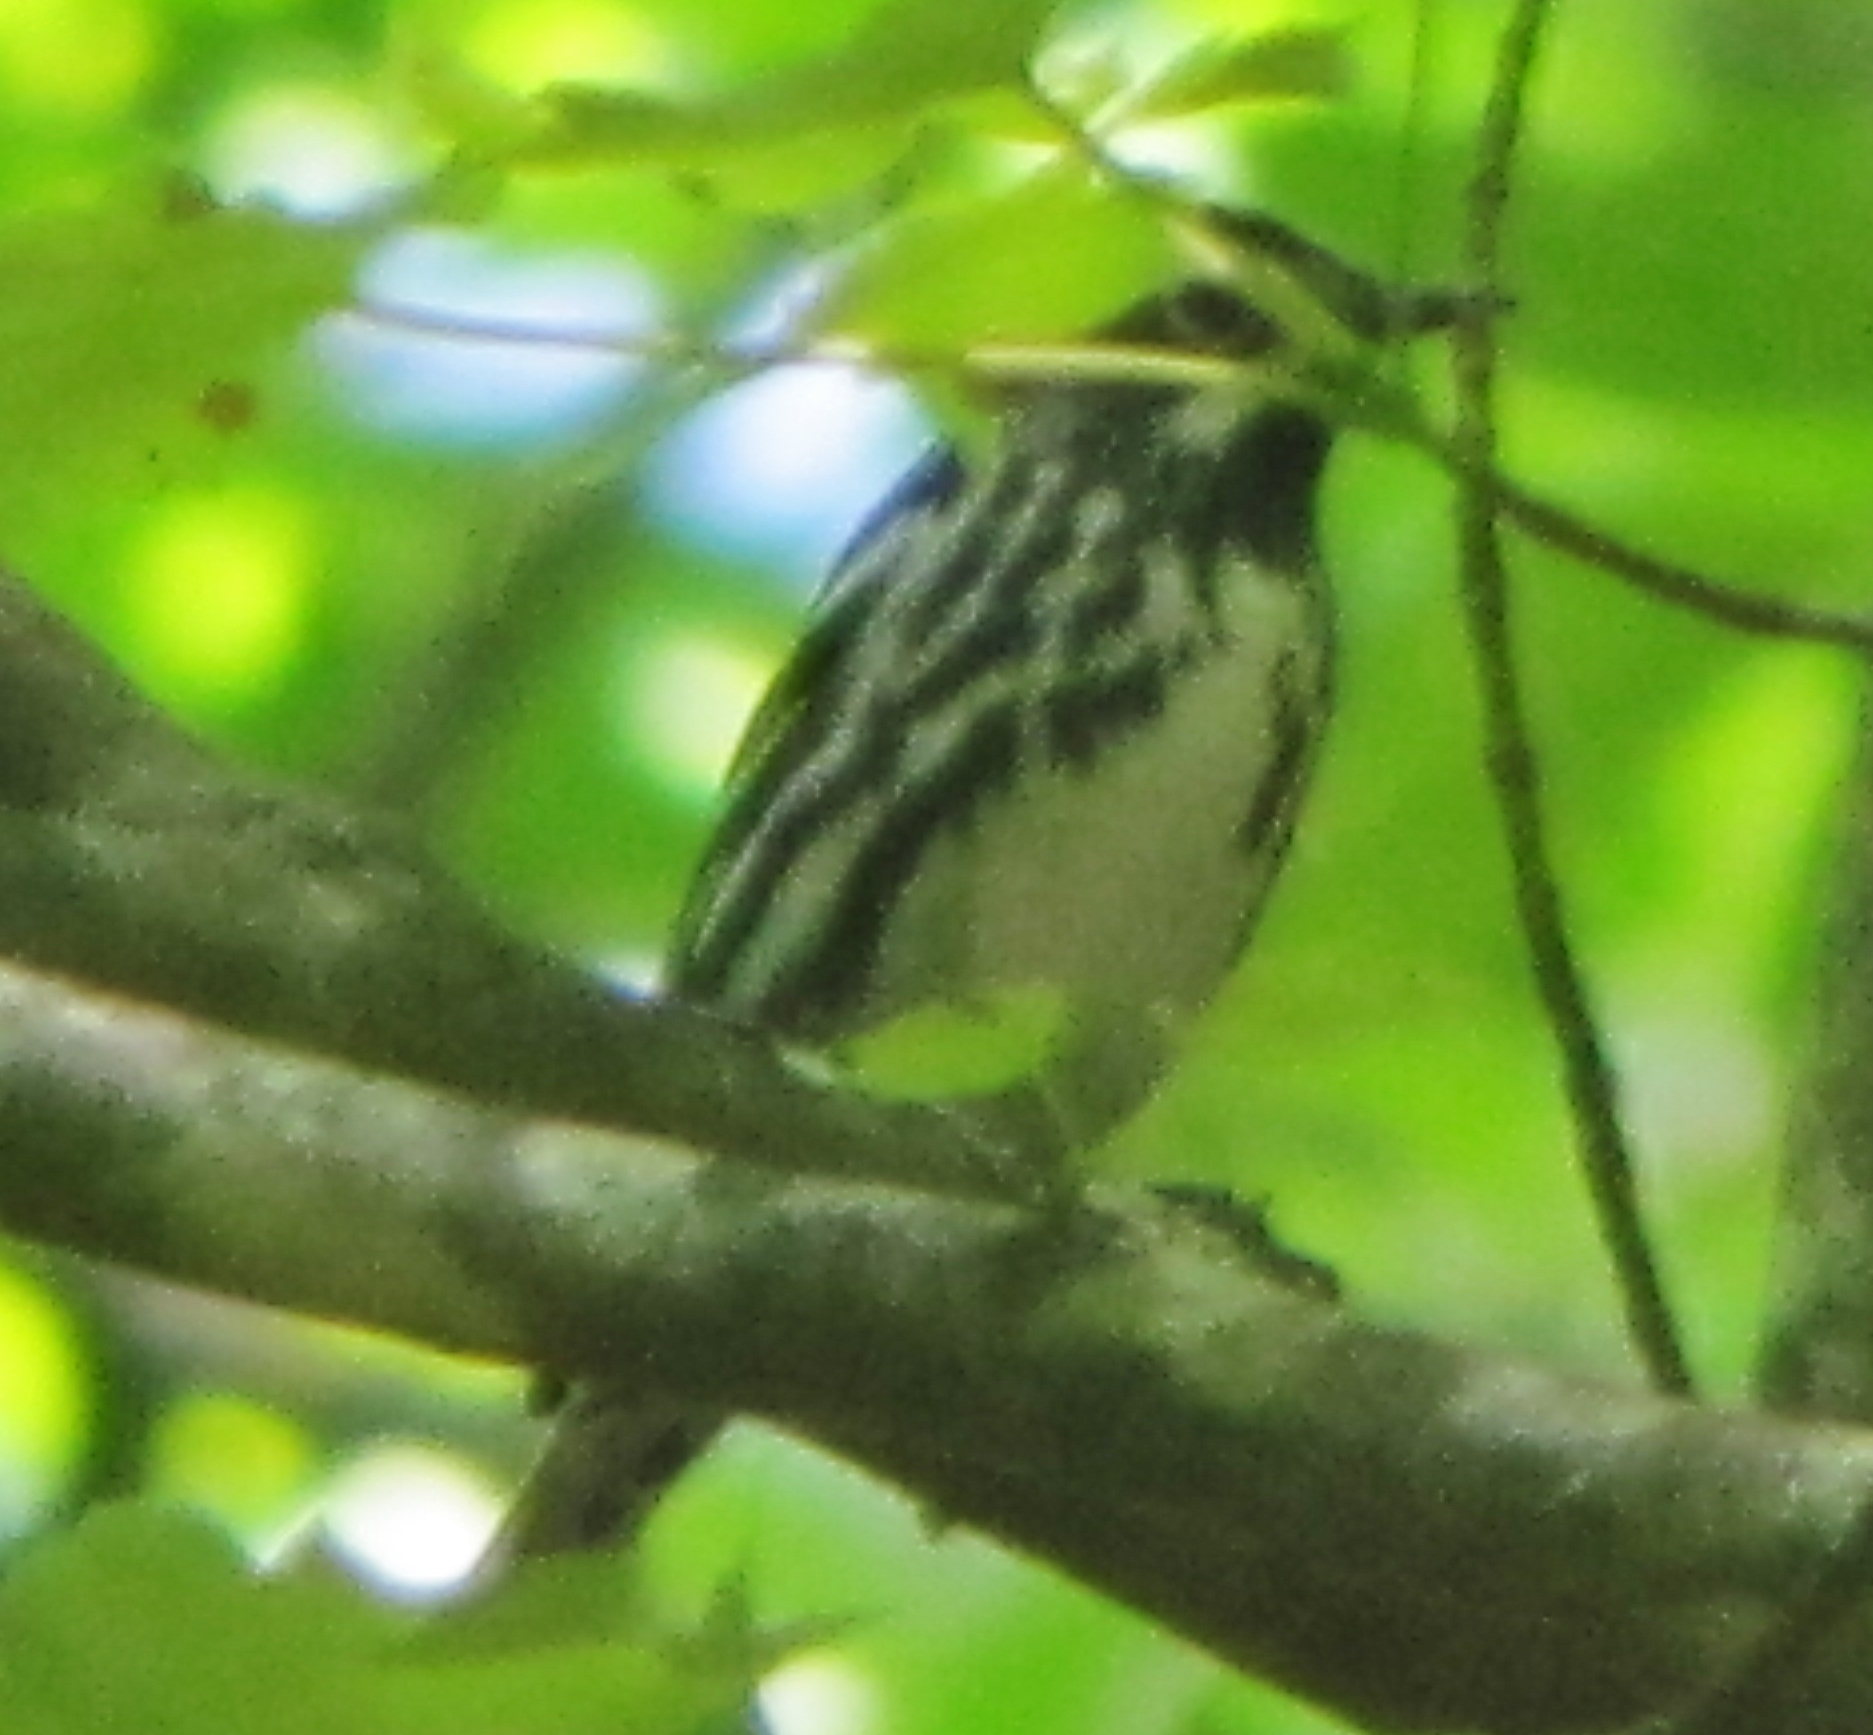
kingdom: Animalia
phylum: Chordata
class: Aves
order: Passeriformes
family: Parulidae
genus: Mniotilta
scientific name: Mniotilta varia
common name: Black-and-white warbler
